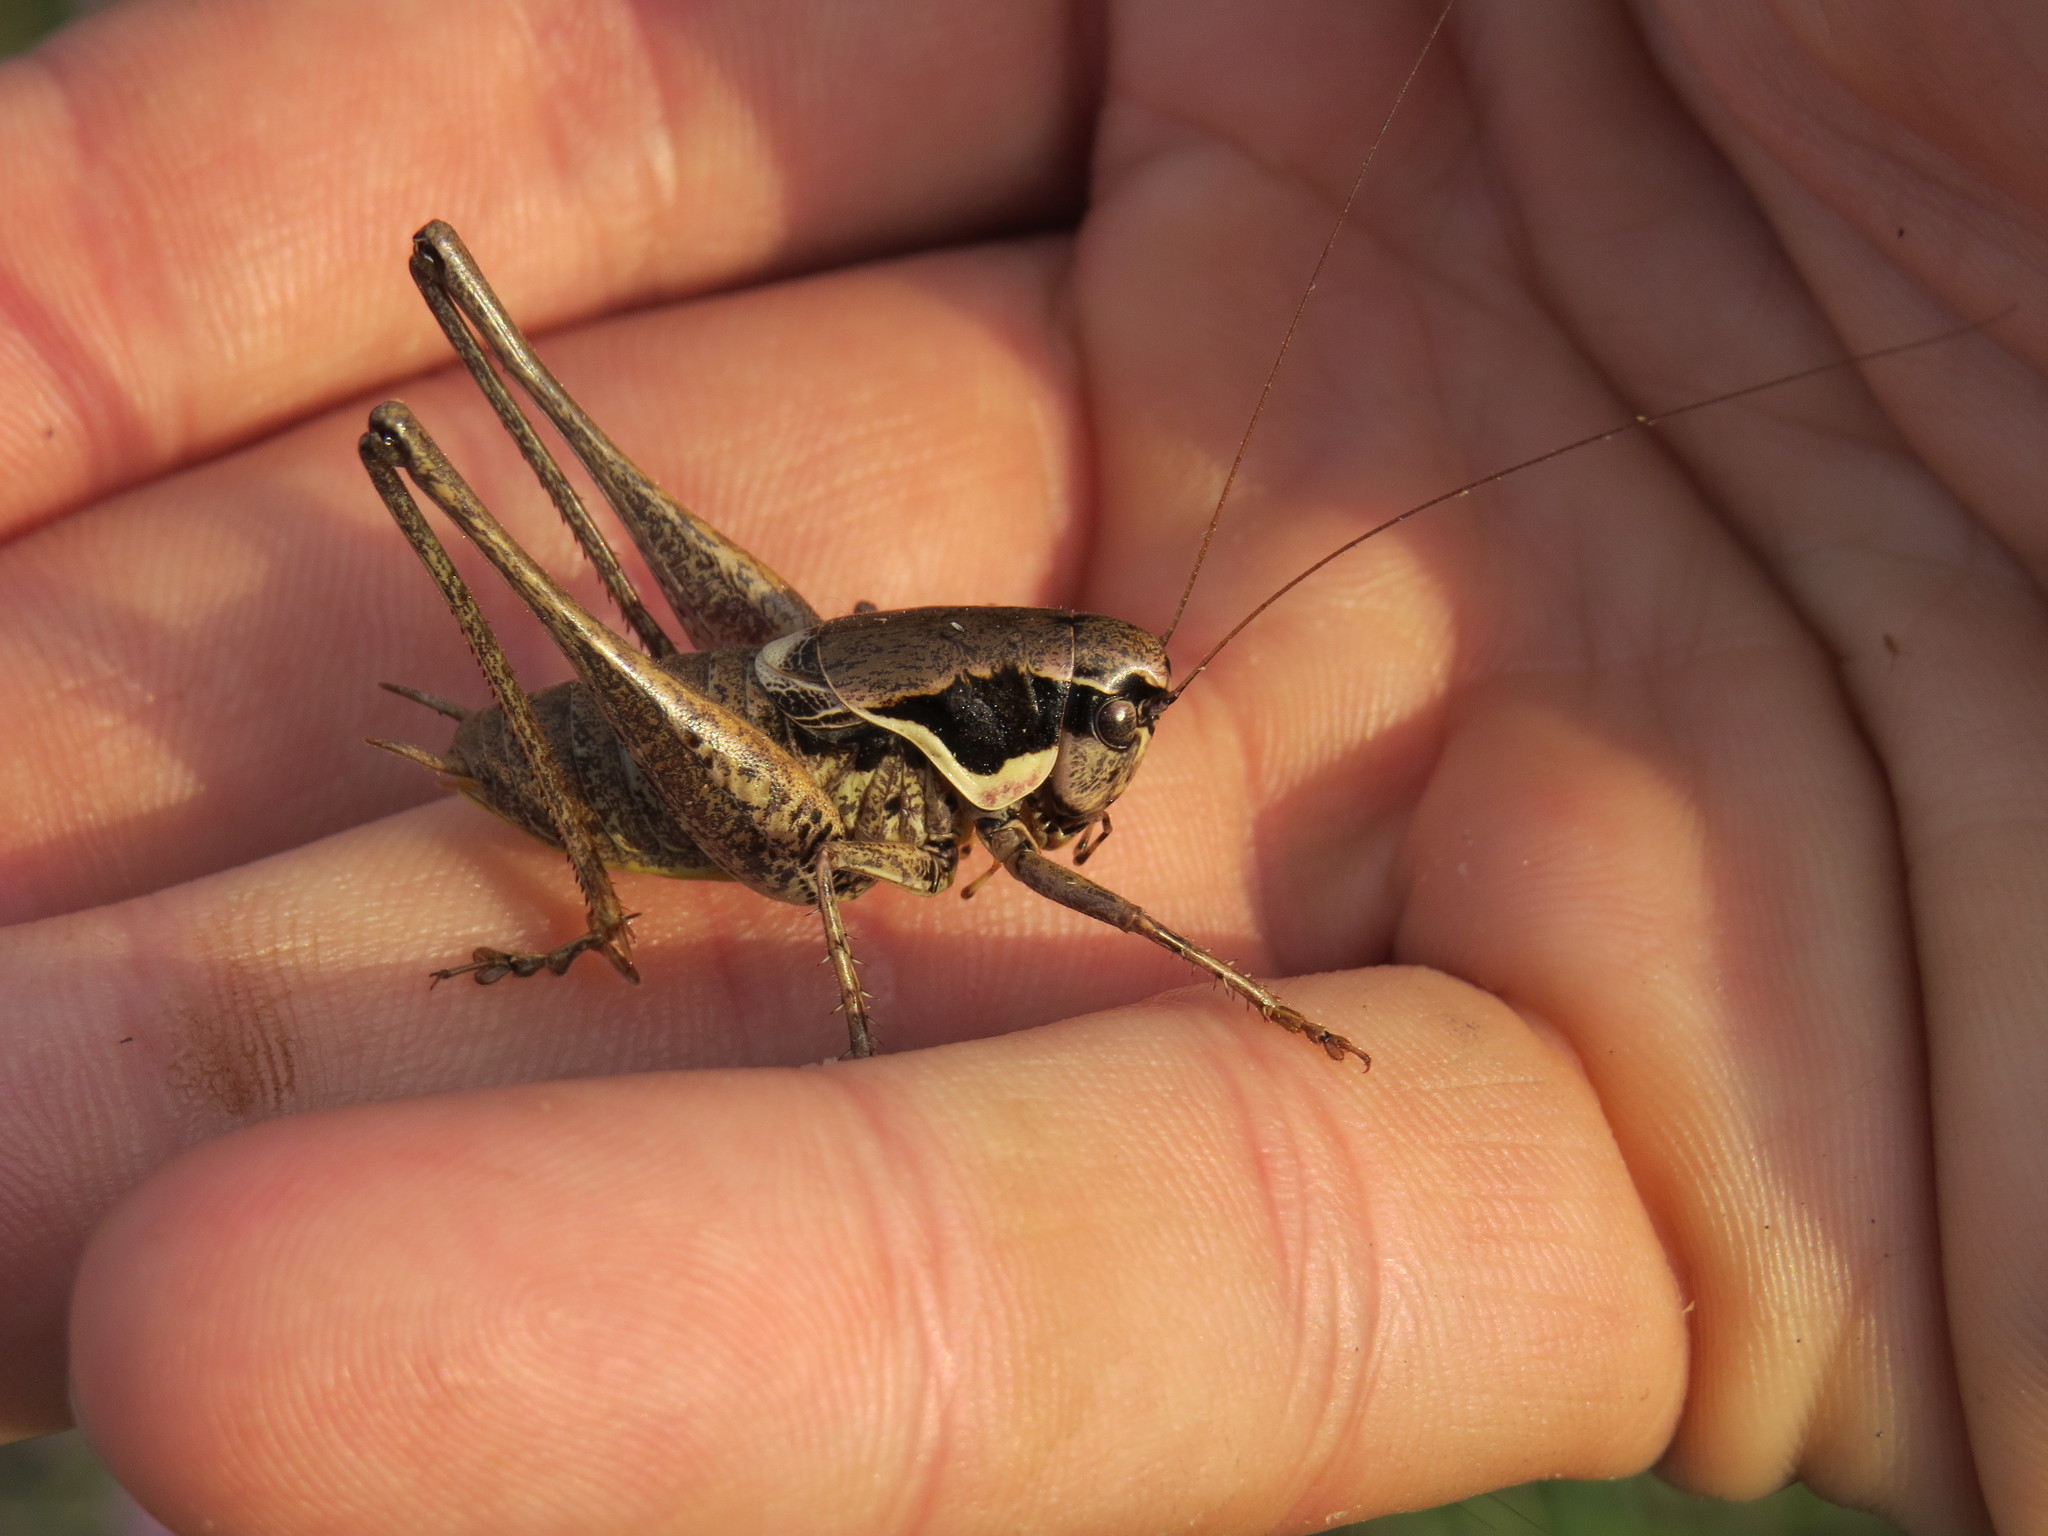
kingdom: Animalia
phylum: Arthropoda
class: Insecta
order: Orthoptera
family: Tettigoniidae
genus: Pholidoptera
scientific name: Pholidoptera femorata
